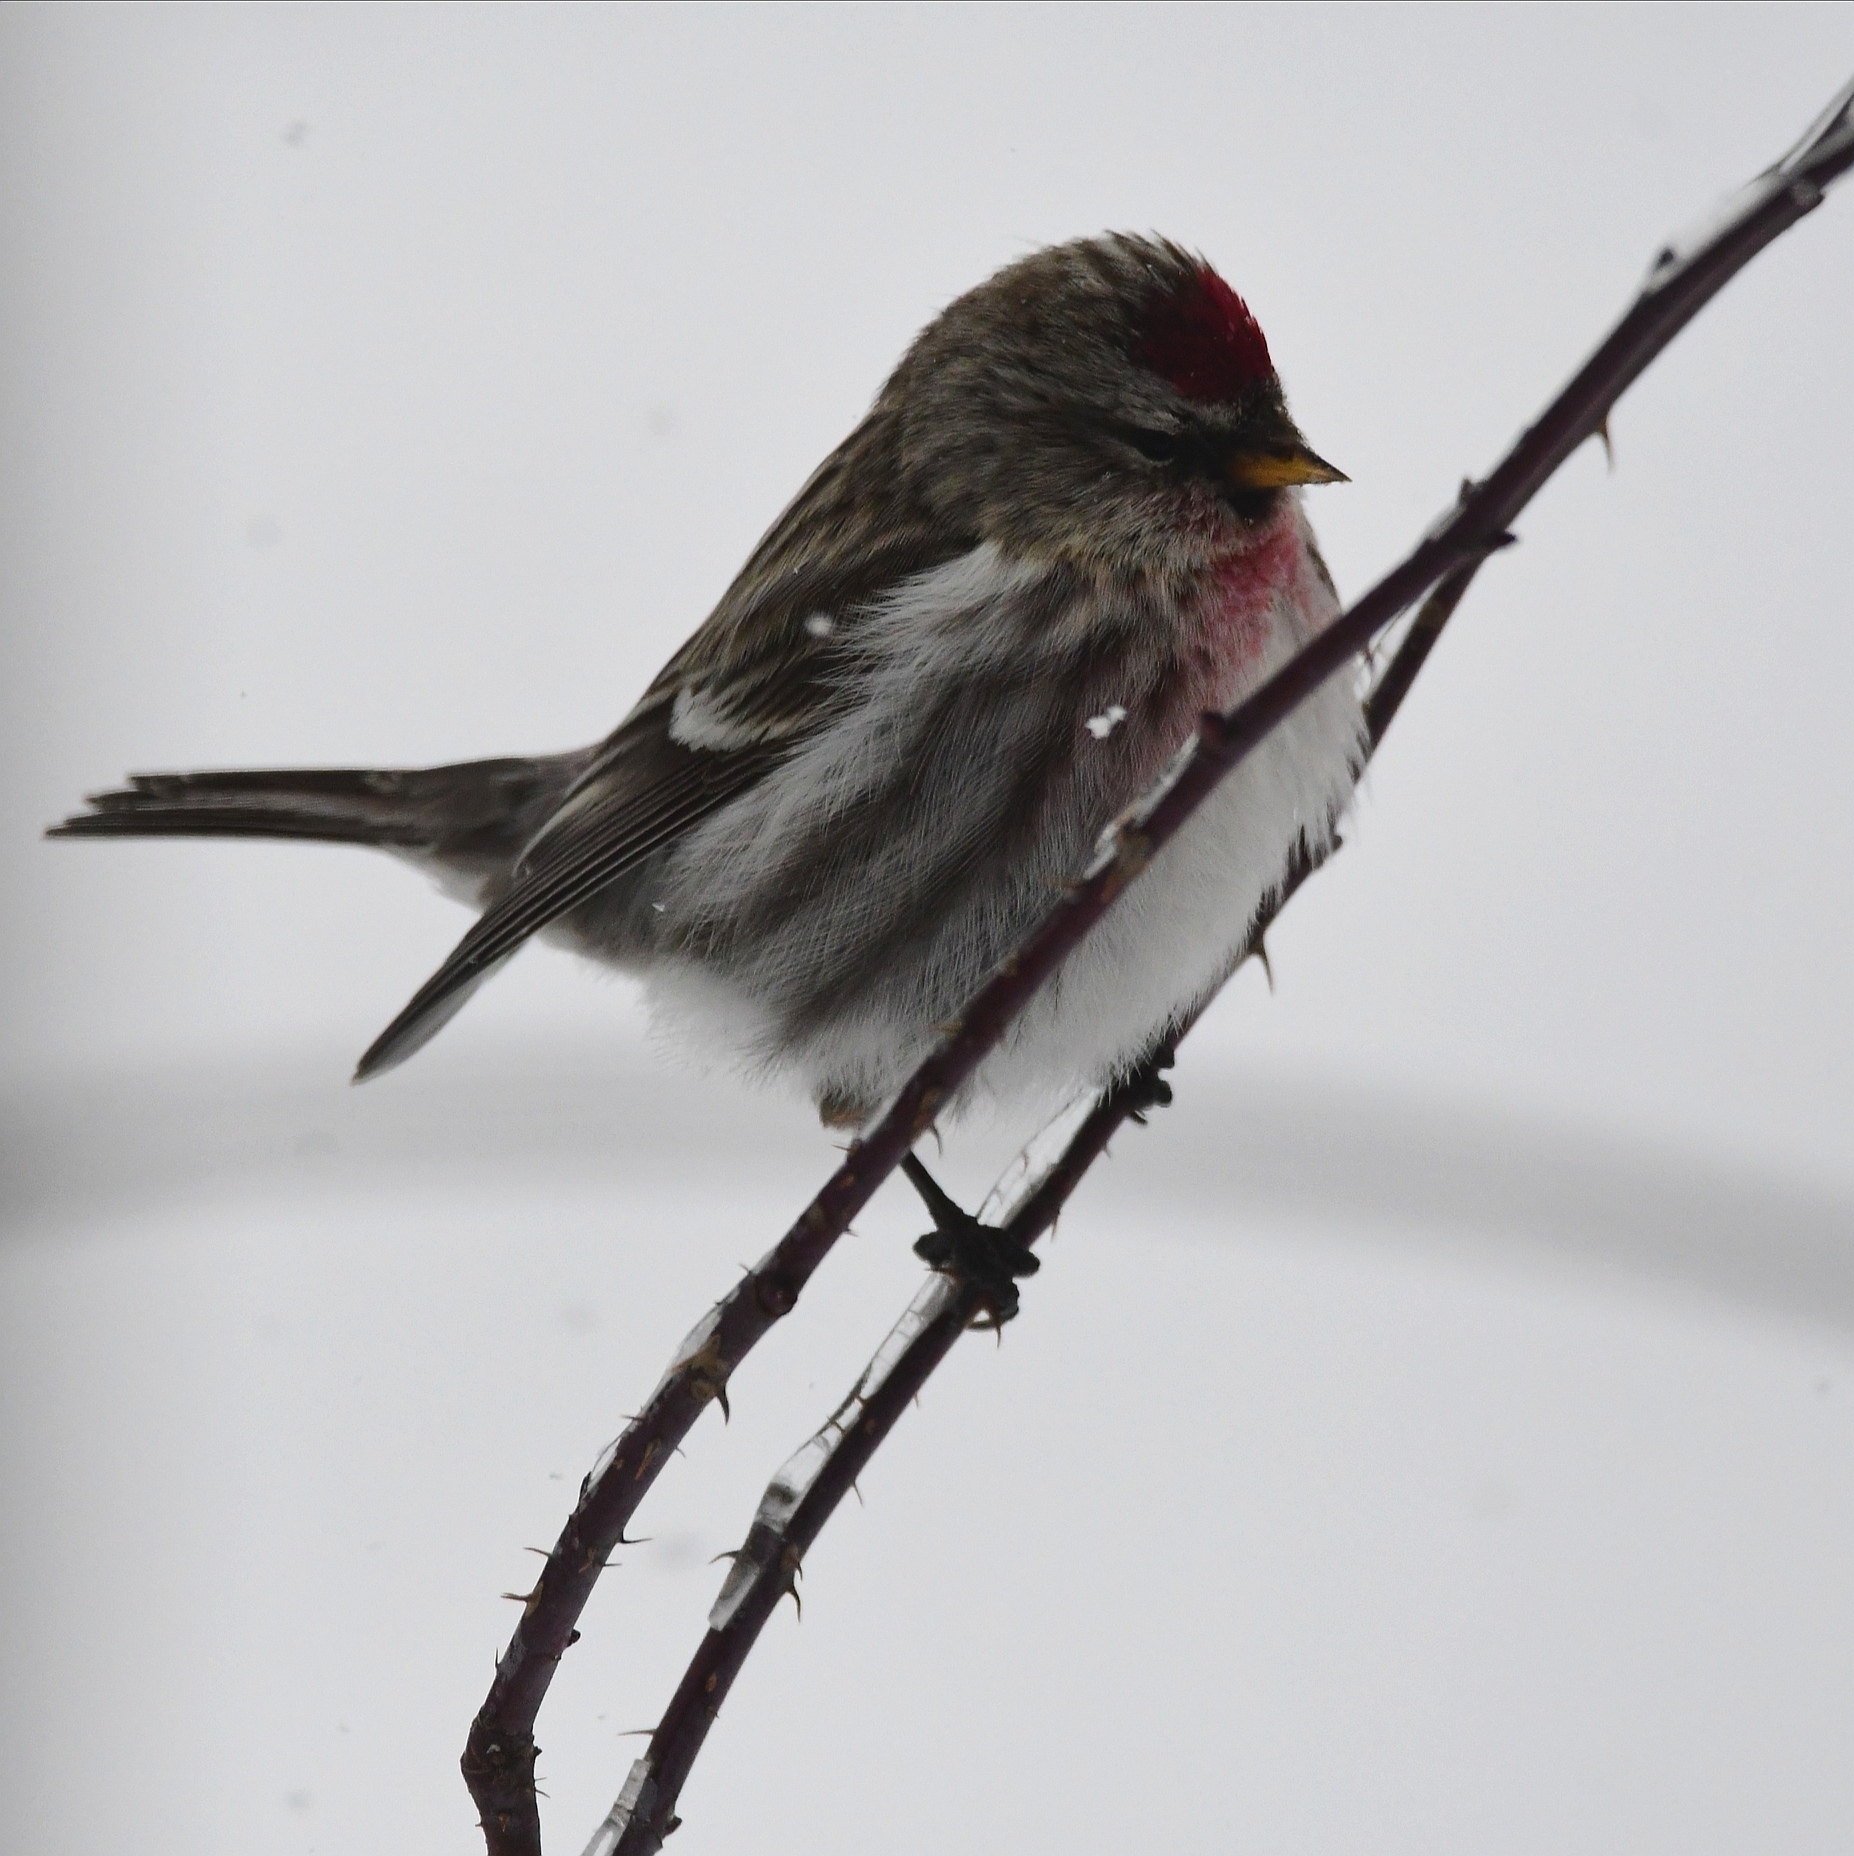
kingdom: Animalia
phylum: Chordata
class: Aves
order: Passeriformes
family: Fringillidae
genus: Acanthis
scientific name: Acanthis flammea
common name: Common redpoll
